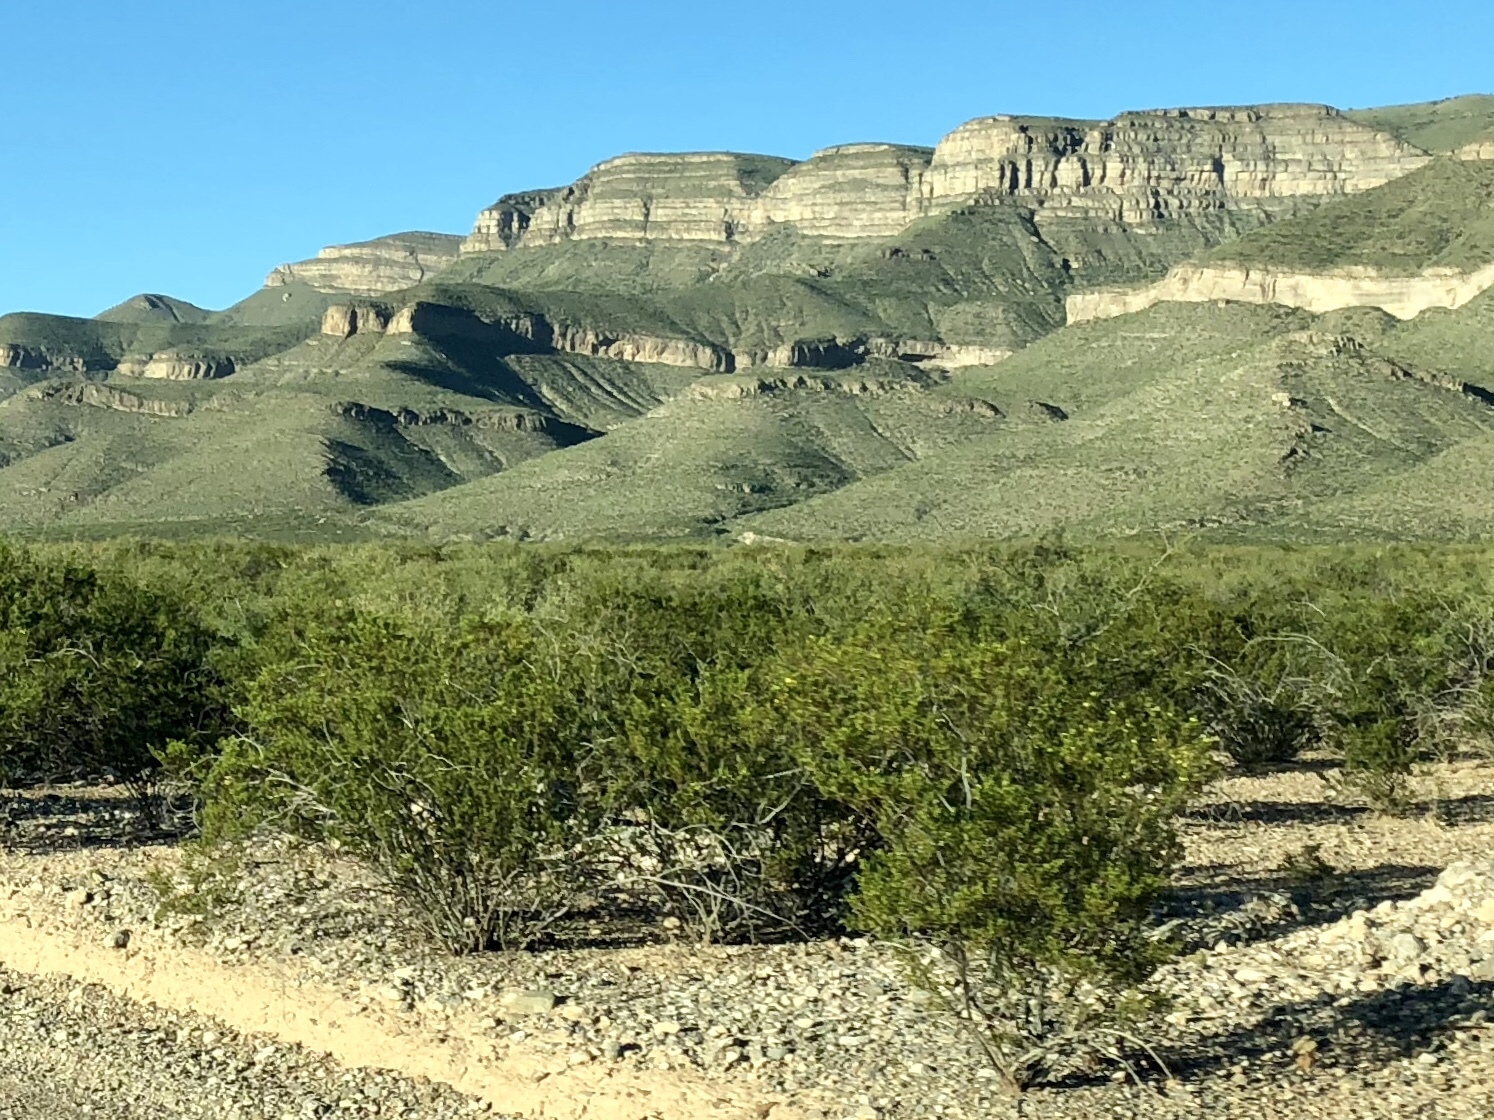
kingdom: Plantae
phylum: Tracheophyta
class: Magnoliopsida
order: Zygophyllales
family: Zygophyllaceae
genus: Larrea
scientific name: Larrea tridentata
